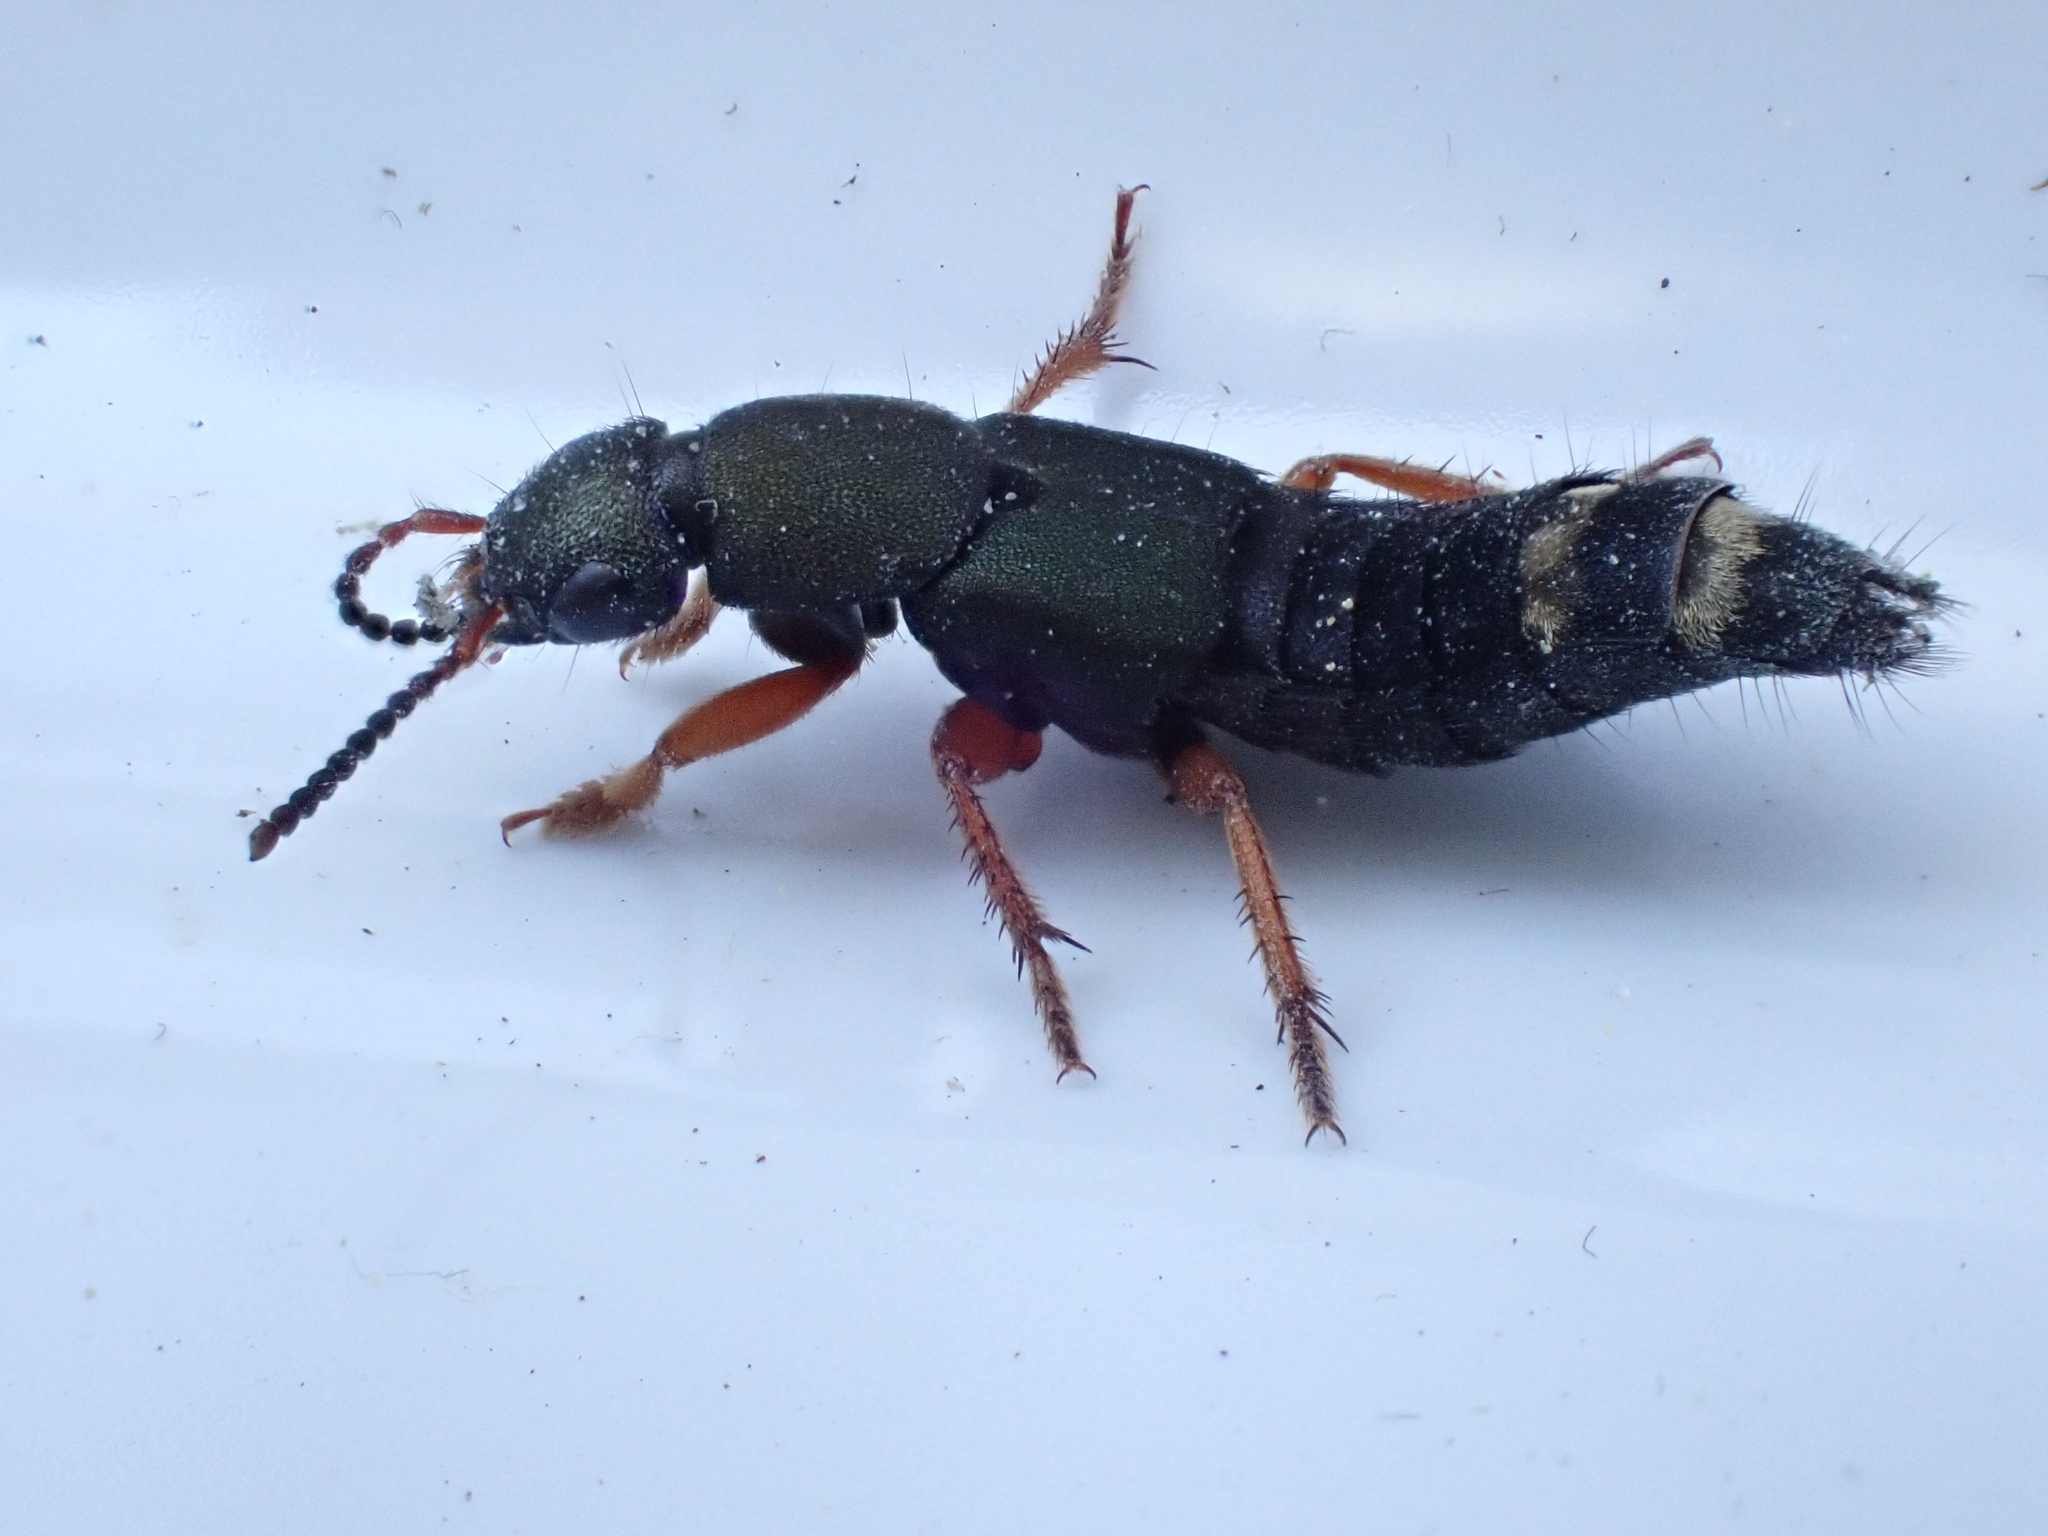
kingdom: Animalia
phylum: Arthropoda
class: Insecta
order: Coleoptera
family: Staphylinidae
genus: Platydracus
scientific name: Platydracus fulvipes
